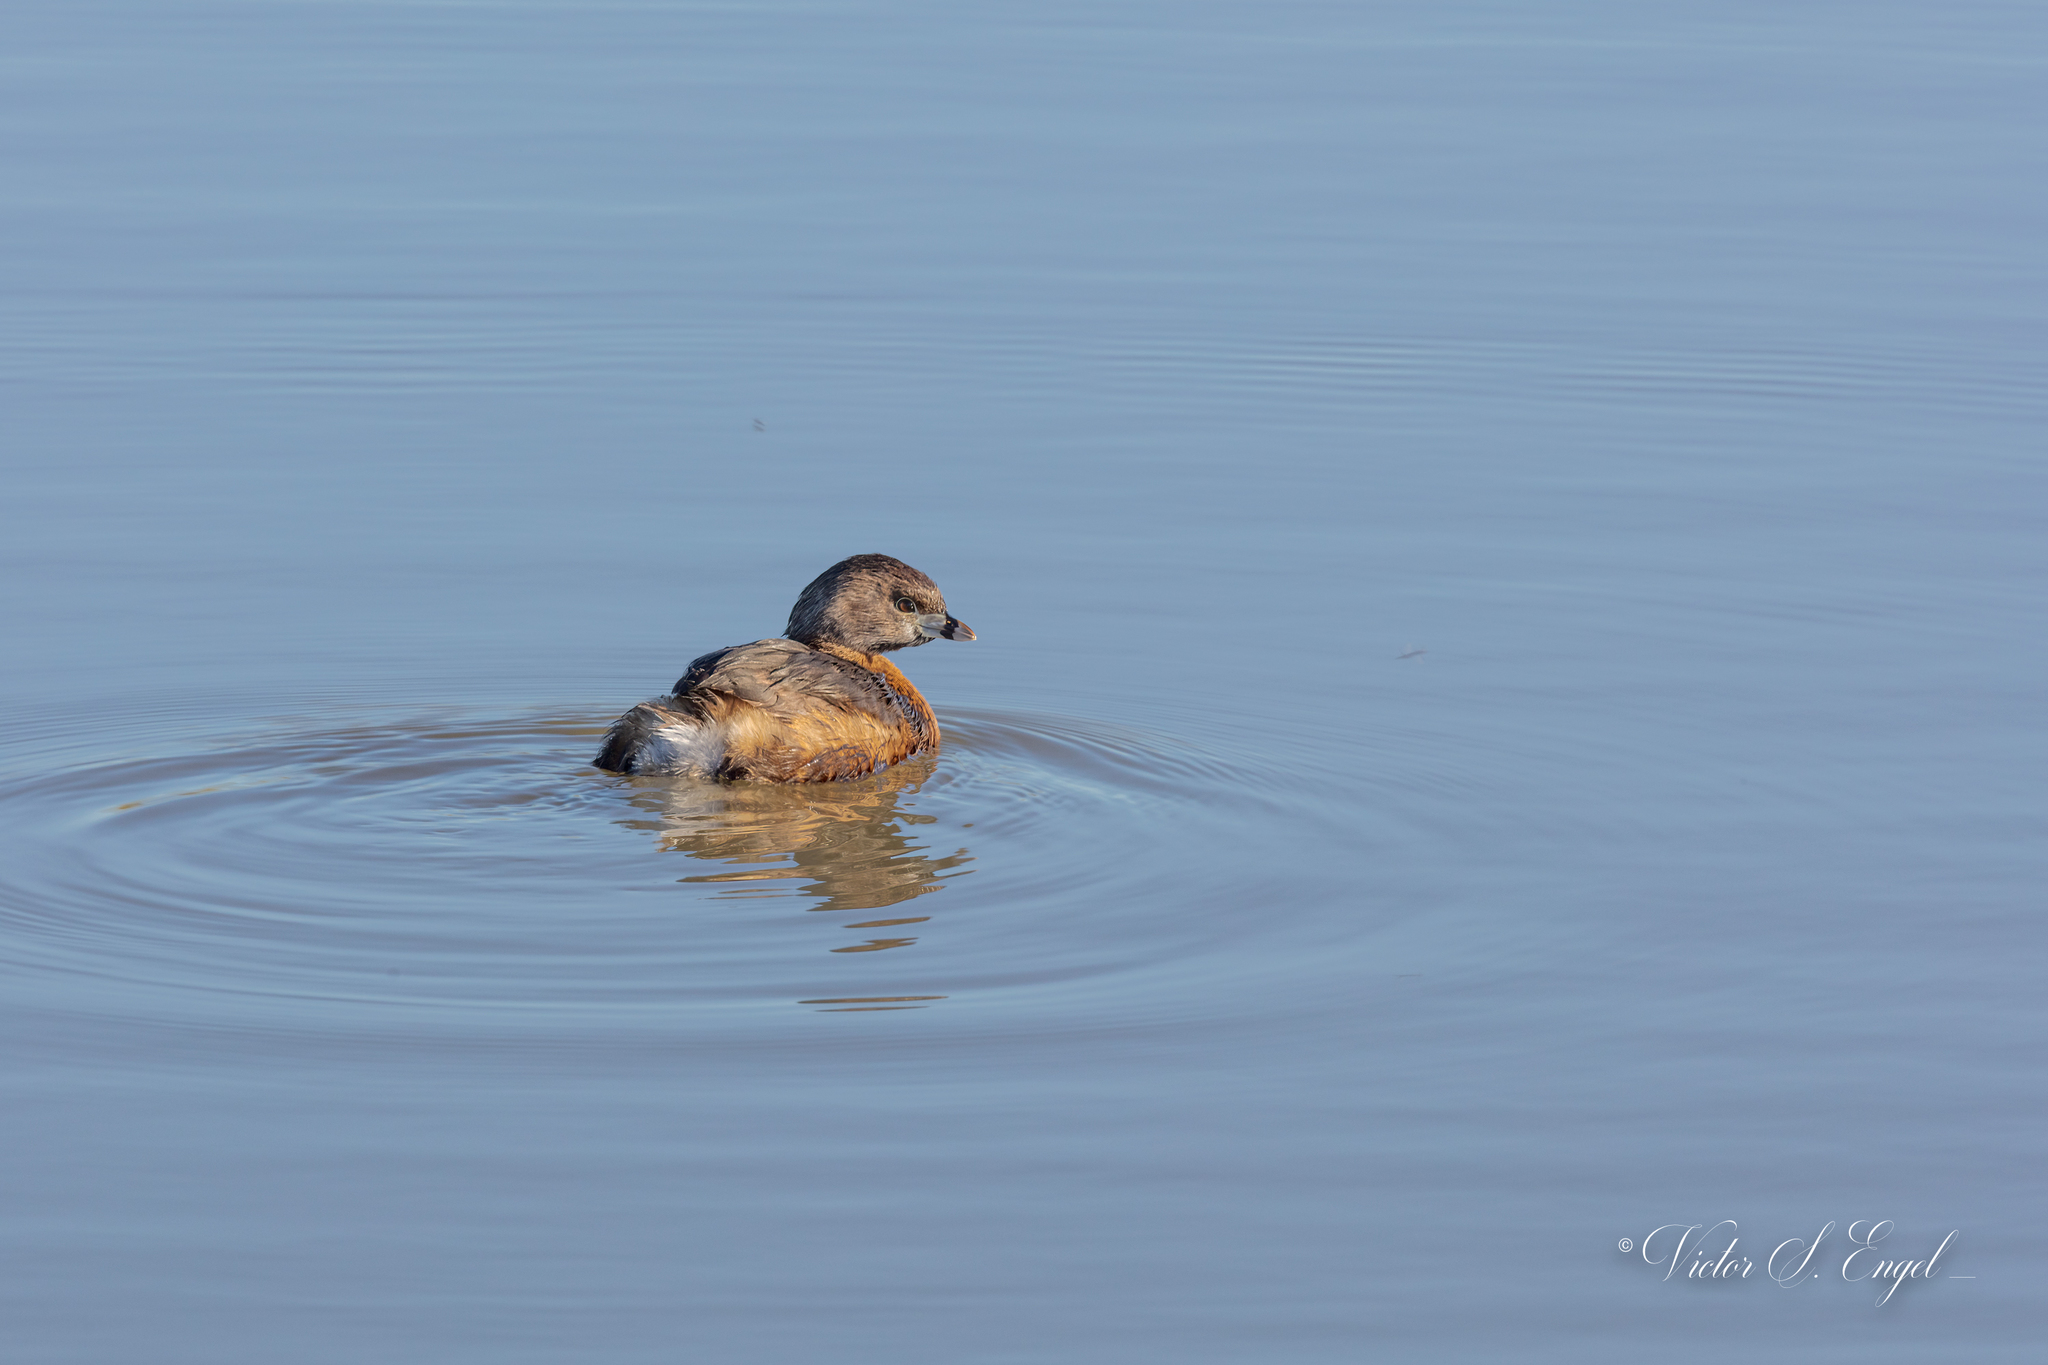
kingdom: Animalia
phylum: Chordata
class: Aves
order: Podicipediformes
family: Podicipedidae
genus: Podilymbus
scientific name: Podilymbus podiceps
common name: Pied-billed grebe
